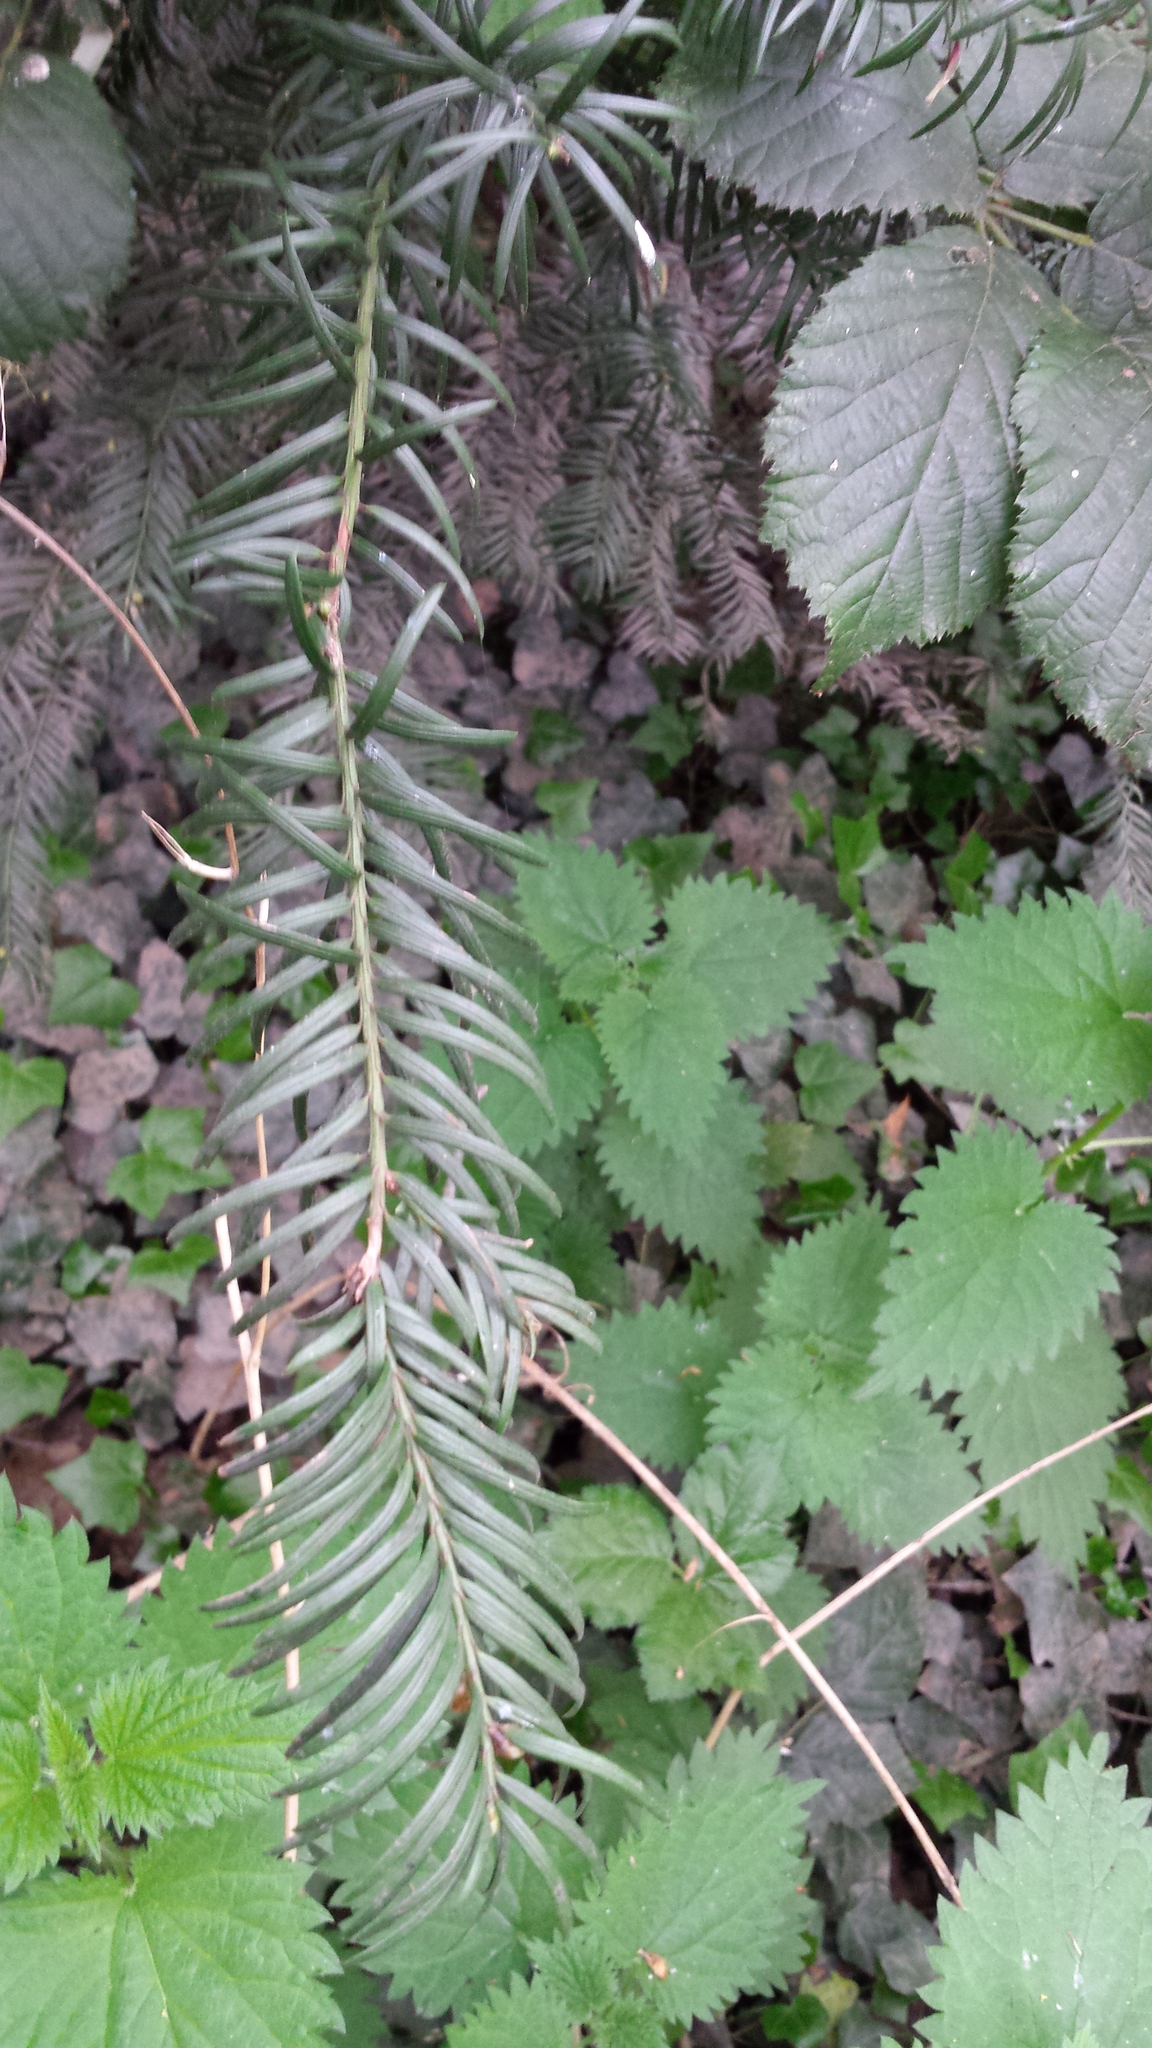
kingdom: Plantae
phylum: Tracheophyta
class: Pinopsida
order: Pinales
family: Taxaceae
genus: Taxus
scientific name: Taxus baccata
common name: Yew
